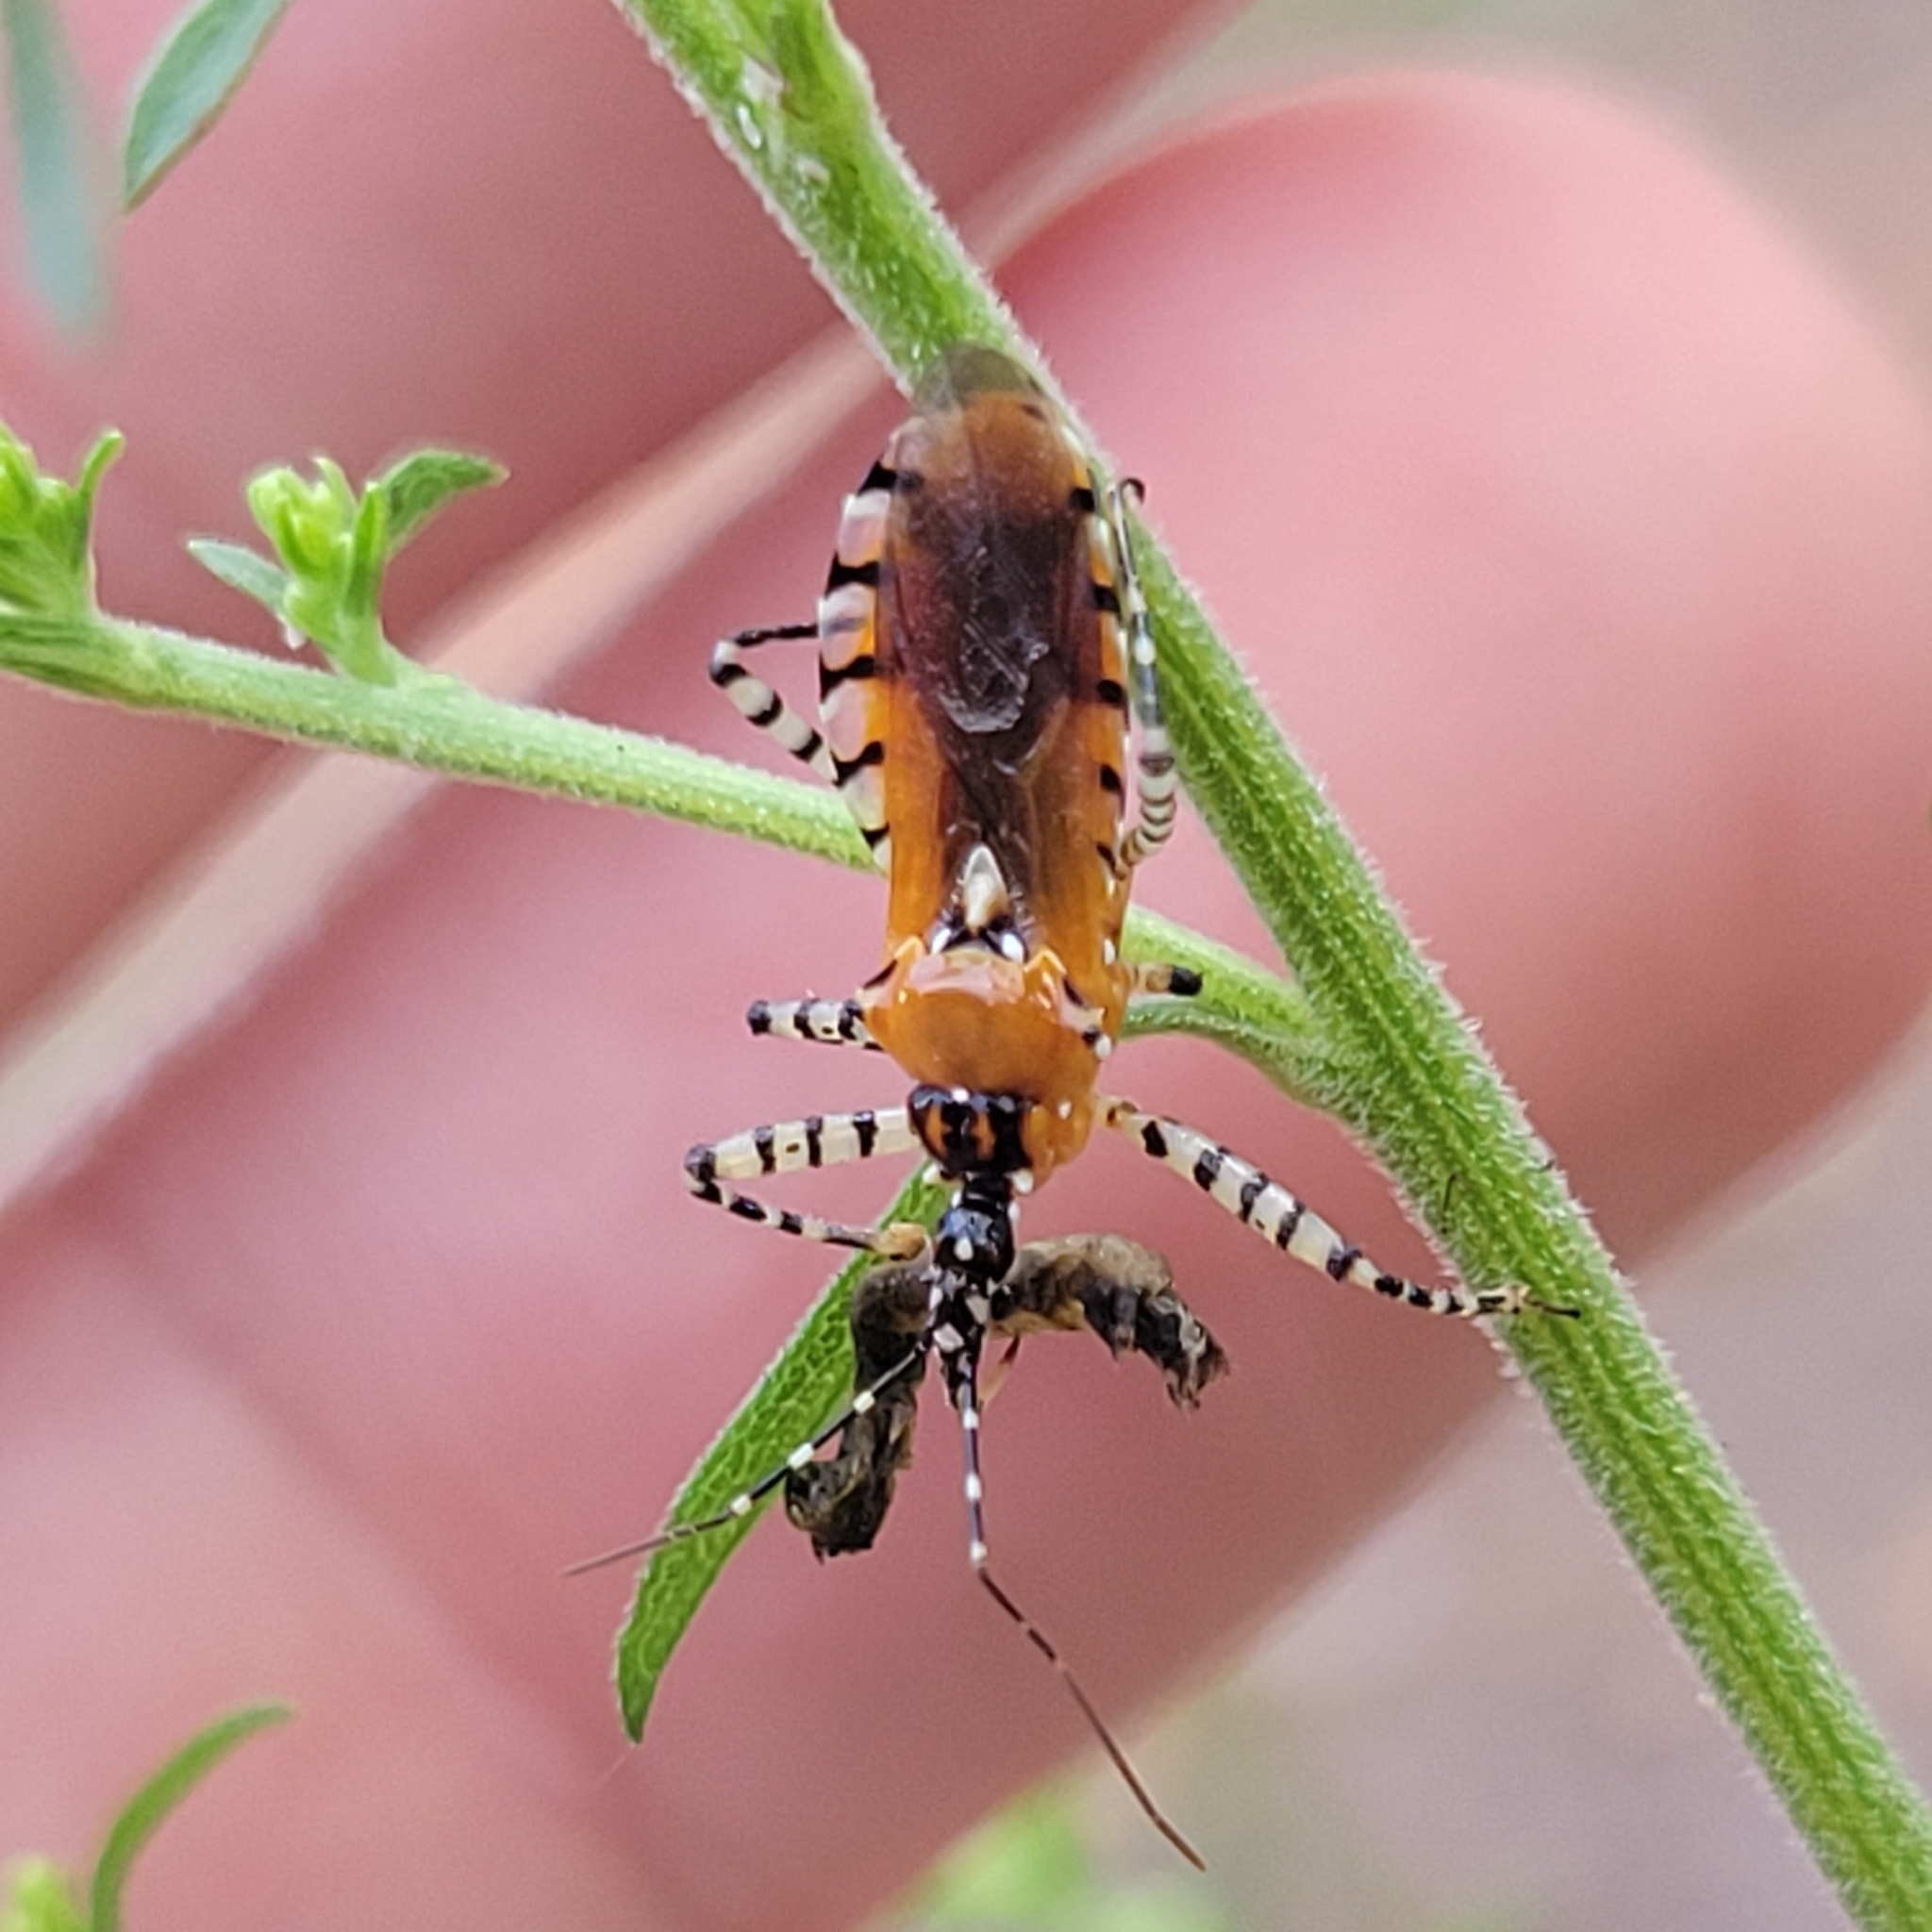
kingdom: Animalia
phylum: Arthropoda
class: Insecta
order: Hemiptera
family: Reduviidae
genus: Pselliopus
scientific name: Pselliopus cinctus
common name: Ringed assassin bug
